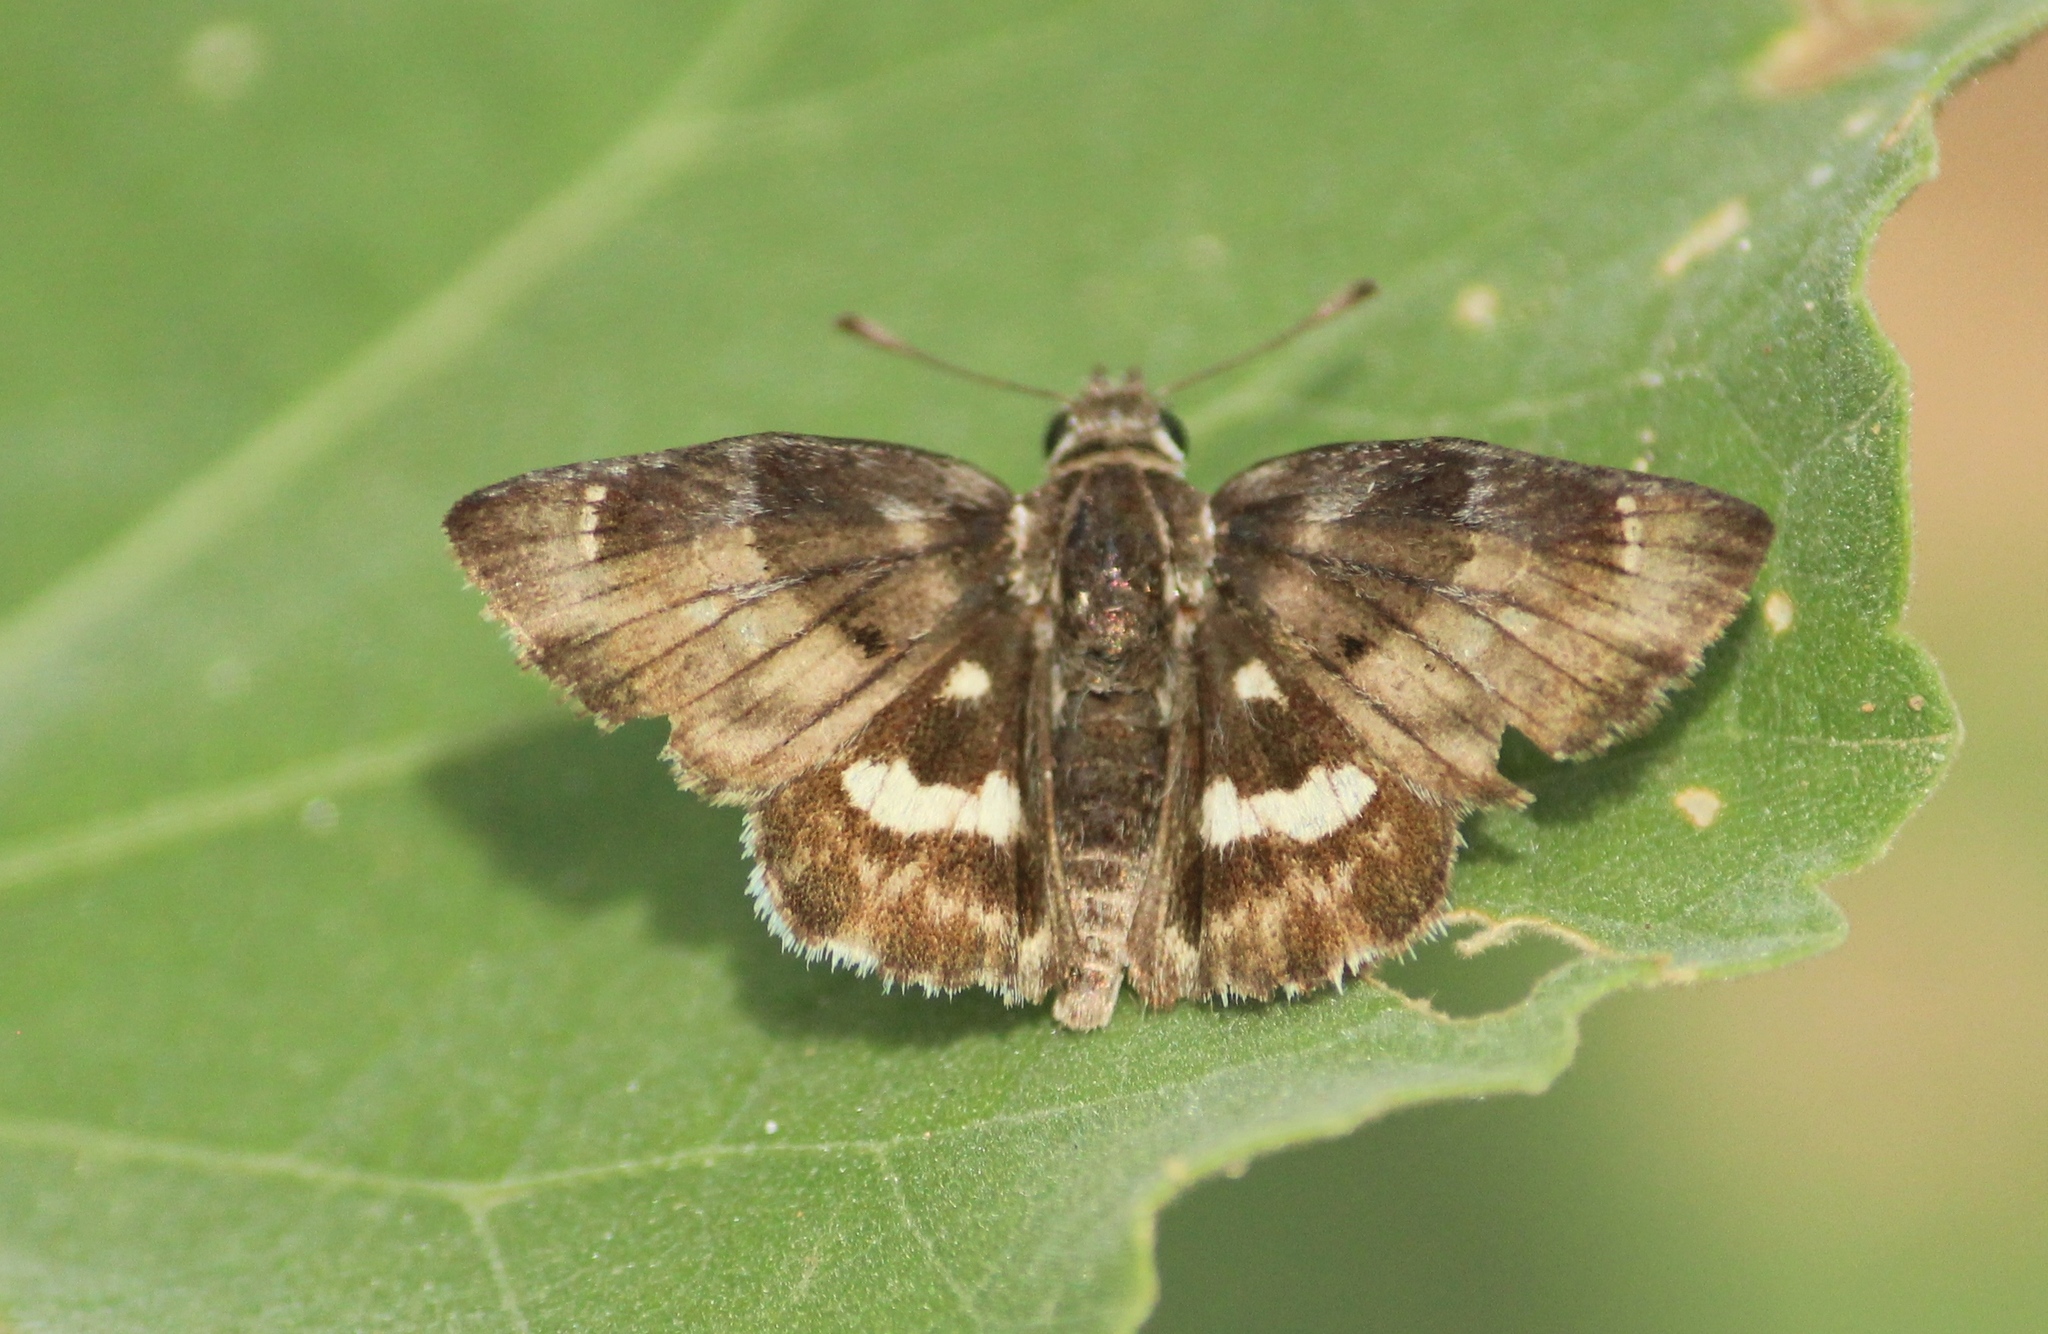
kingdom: Animalia
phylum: Arthropoda
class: Insecta
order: Lepidoptera
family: Hesperiidae
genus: Gomalia
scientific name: Gomalia elma
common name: Green-marbled skipper
